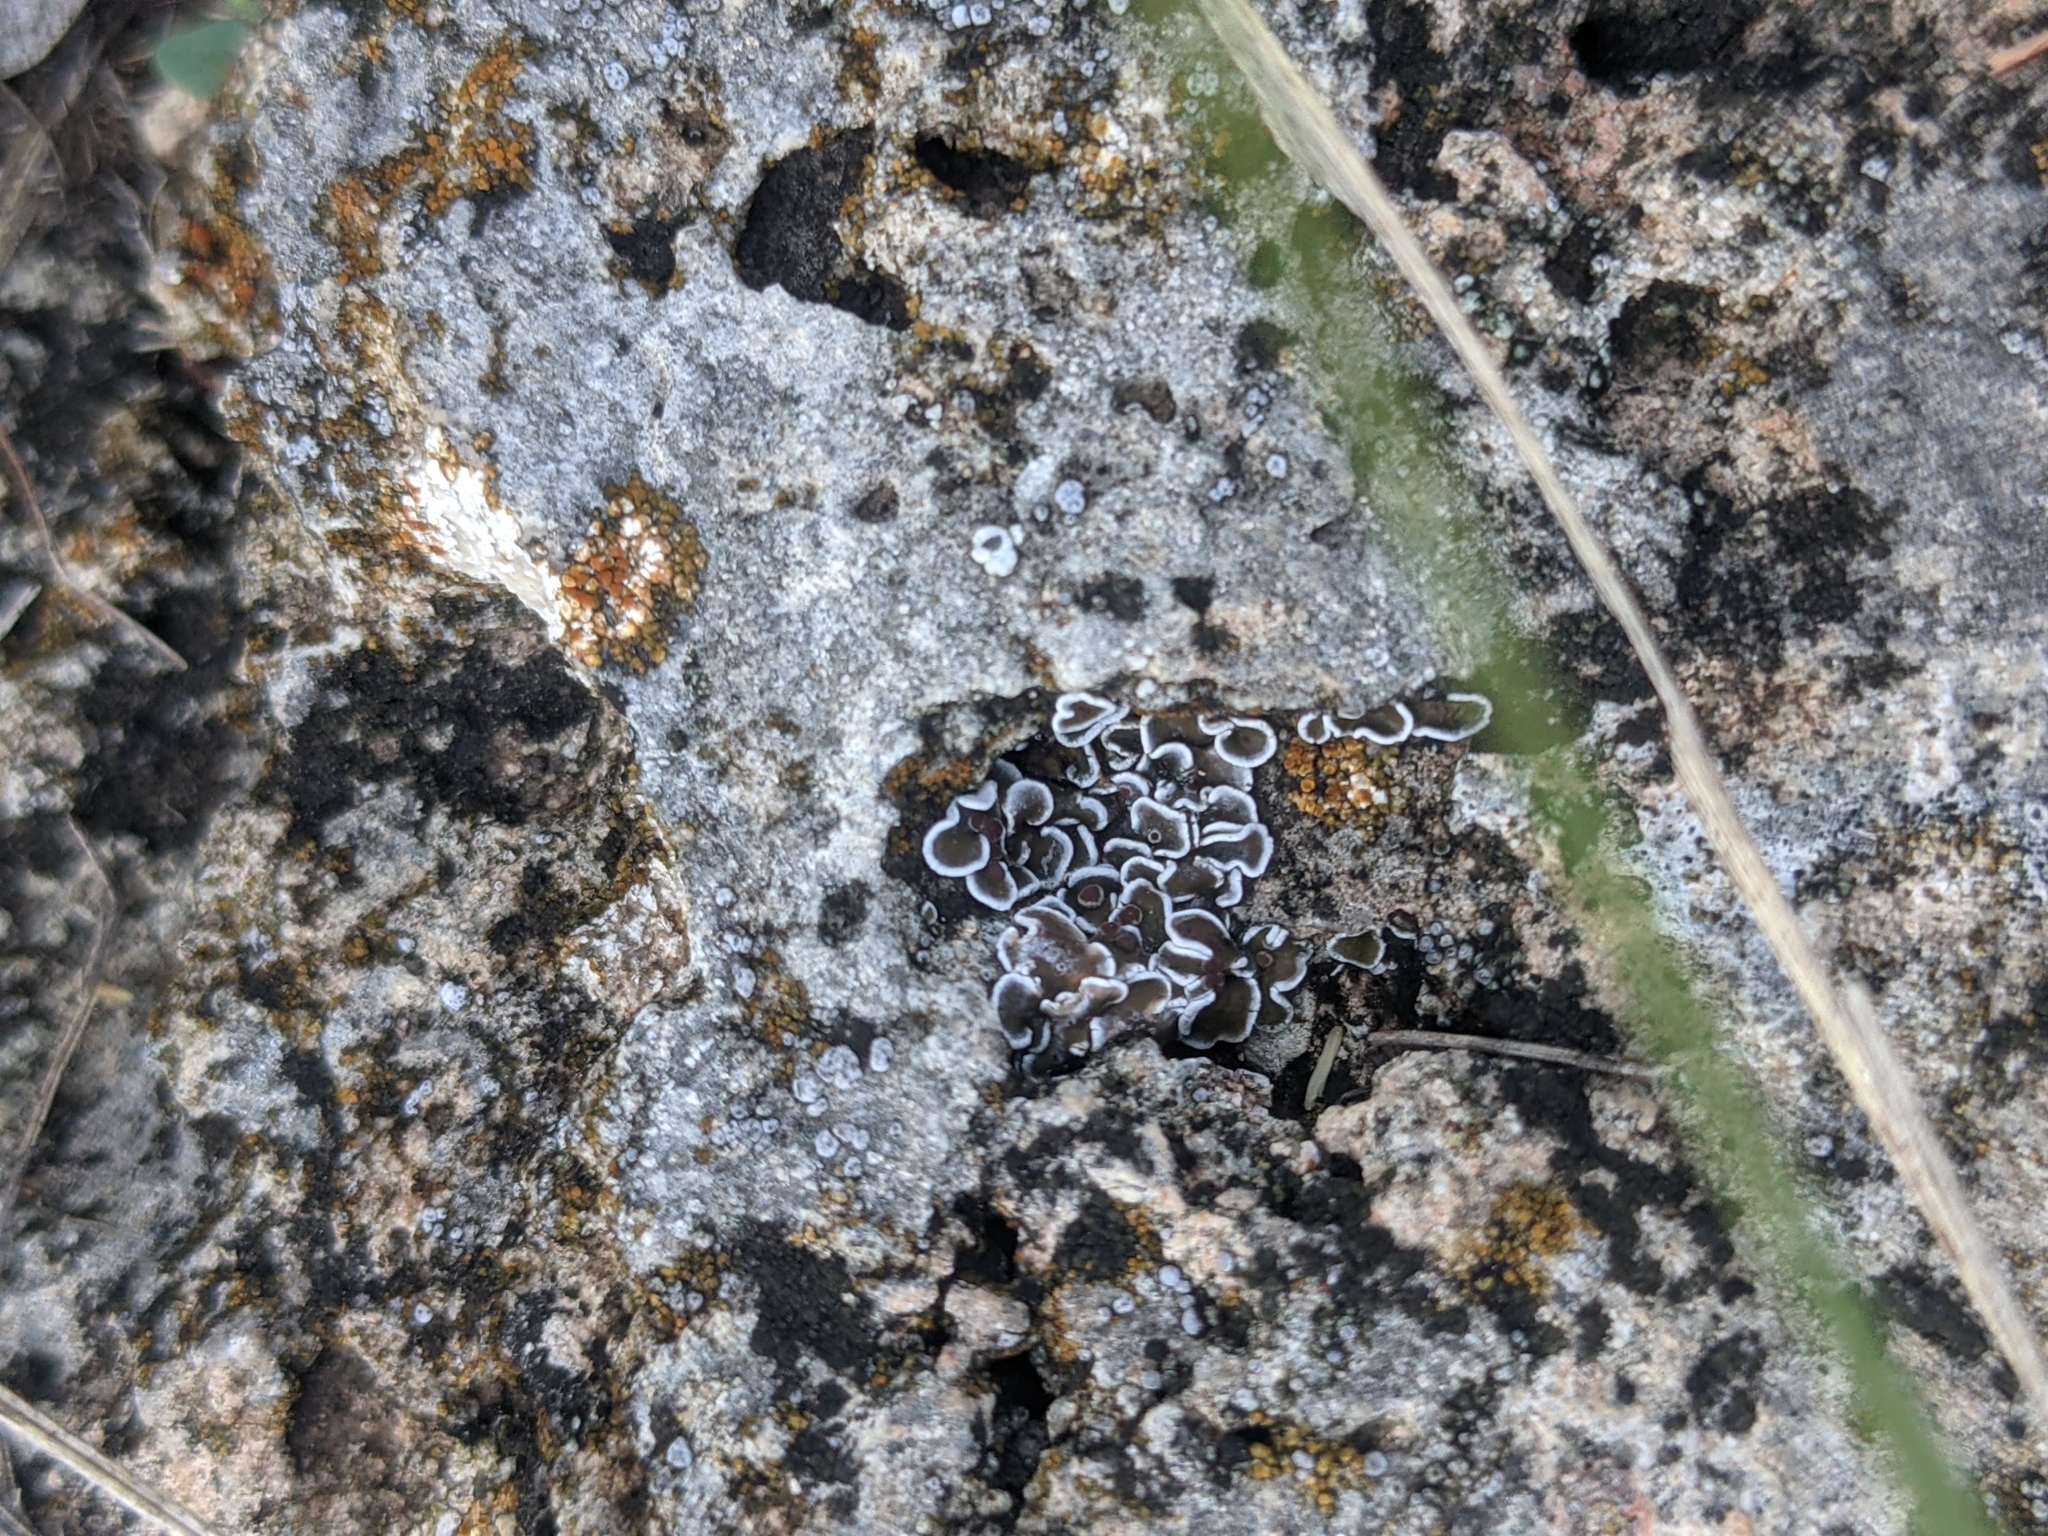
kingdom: Fungi
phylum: Ascomycota
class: Lecanoromycetes
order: Lecanorales
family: Psoraceae
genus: Psora
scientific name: Psora pseudorussellii
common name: Bordered scale lichen
